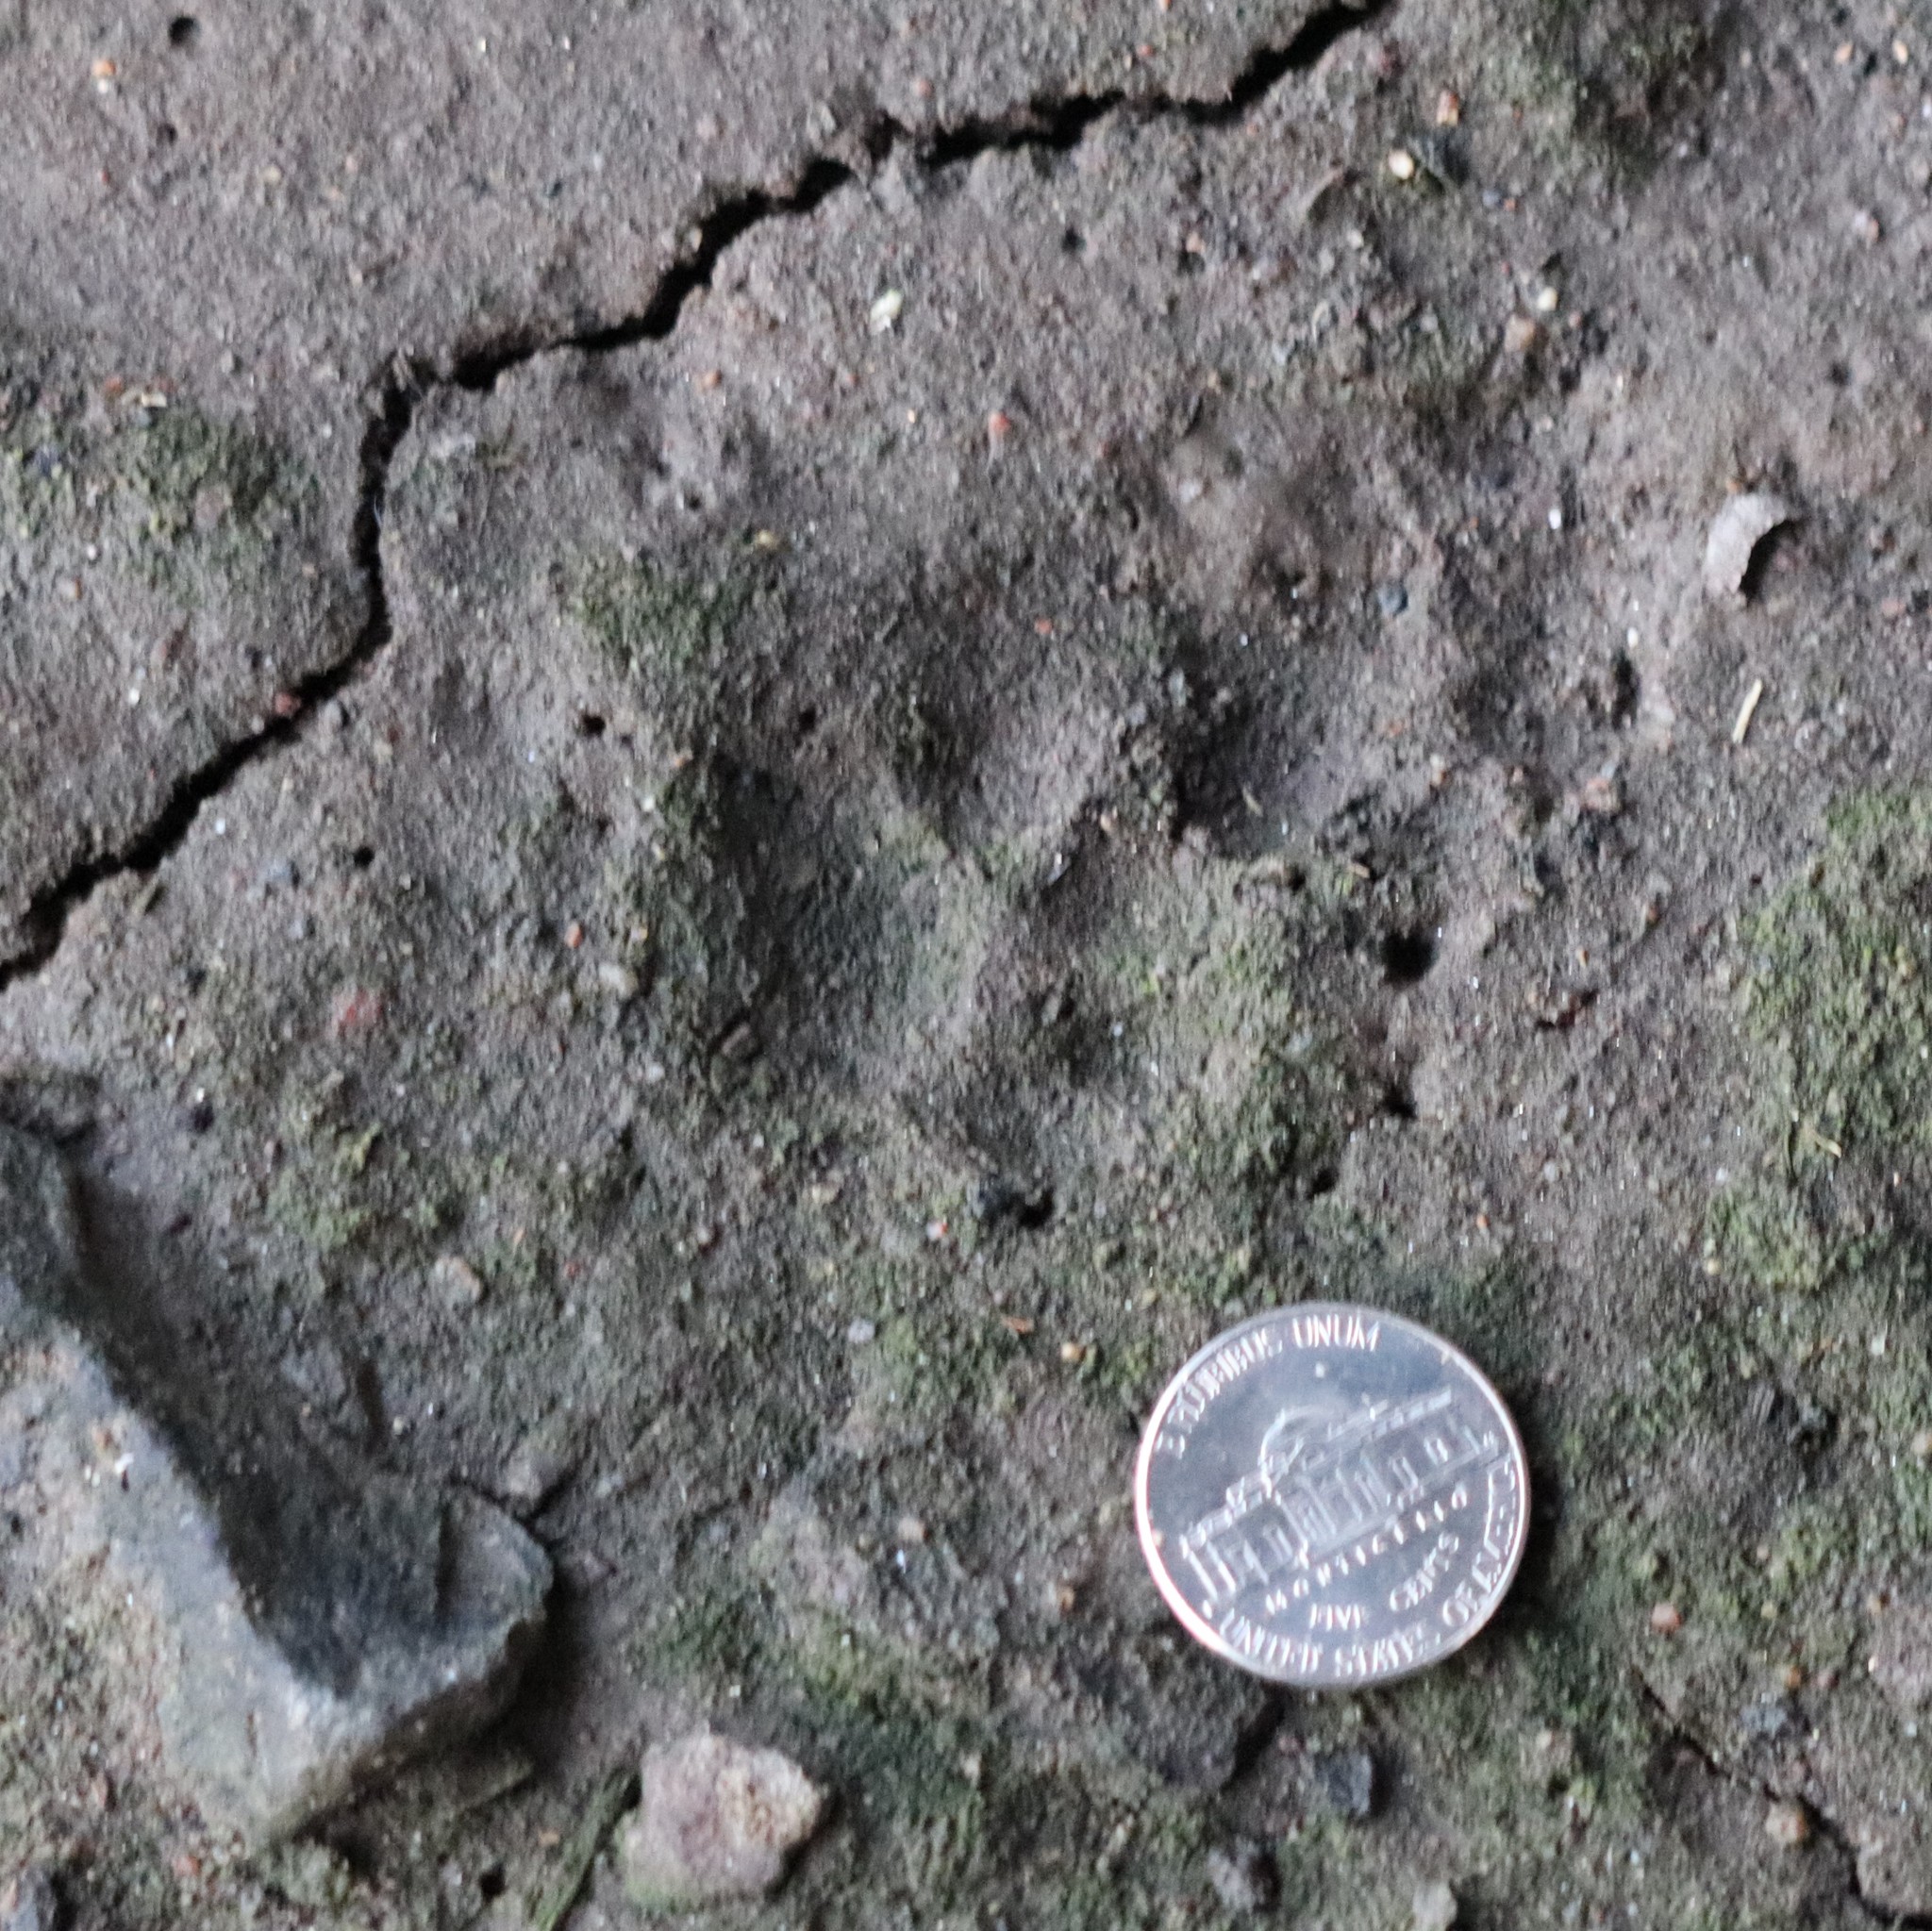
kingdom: Animalia
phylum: Chordata
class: Mammalia
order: Carnivora
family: Felidae
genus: Felis
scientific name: Felis catus
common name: Domestic cat
